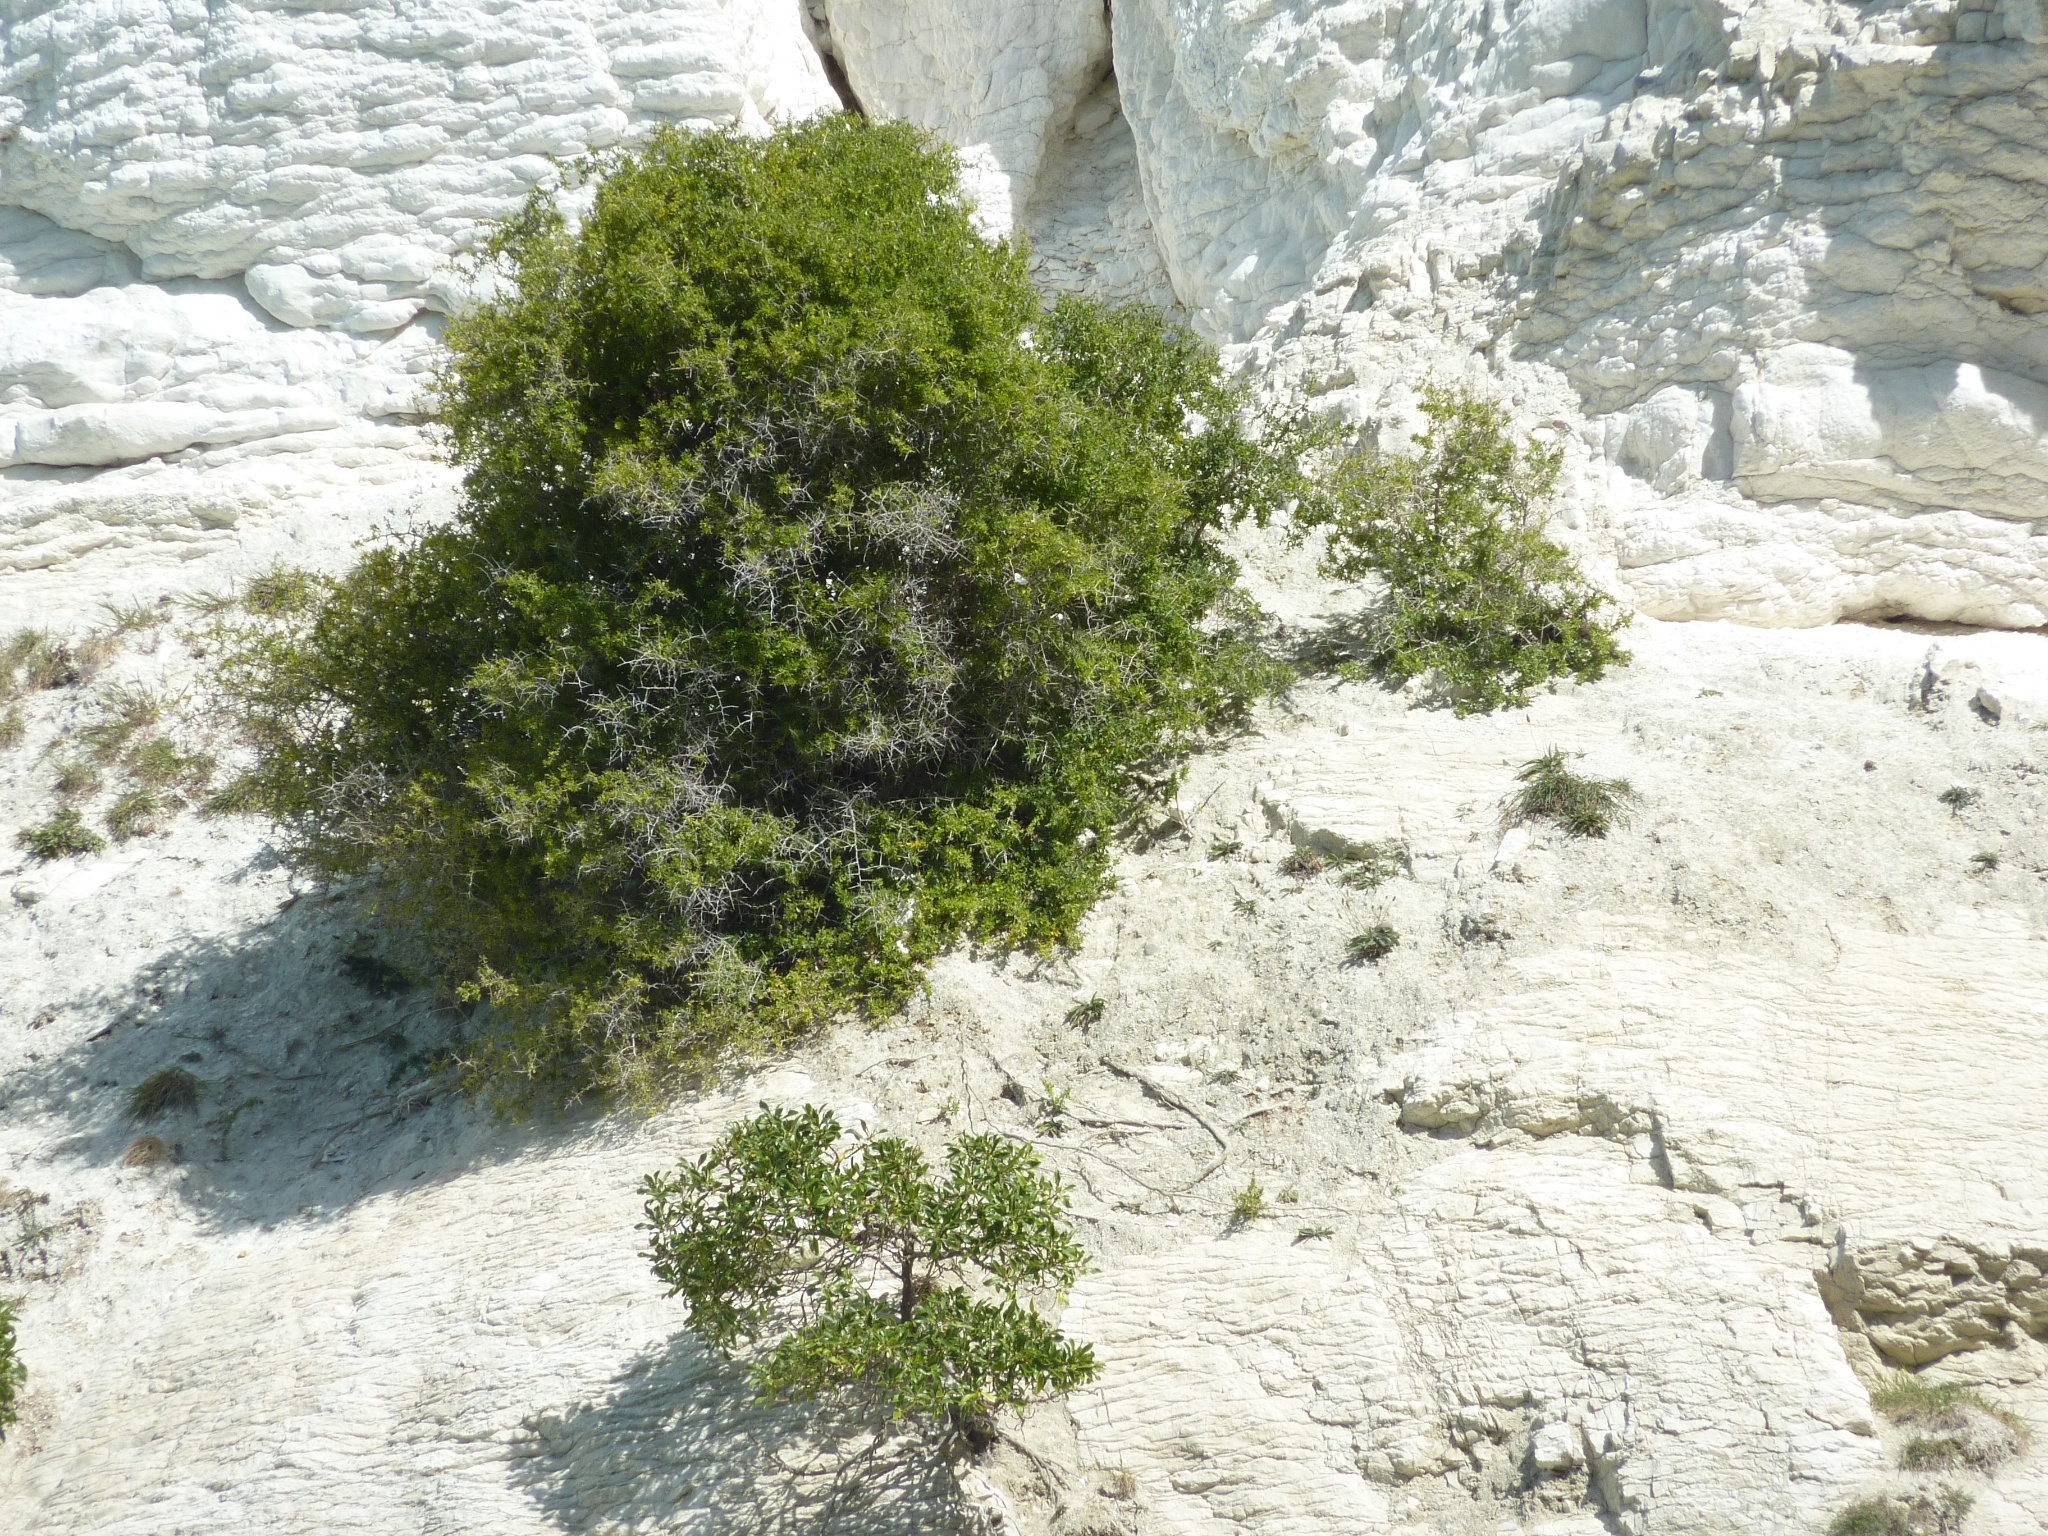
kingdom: Plantae
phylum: Tracheophyta
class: Magnoliopsida
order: Solanales
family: Solanaceae
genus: Lycium
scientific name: Lycium ferocissimum
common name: African boxthorn
